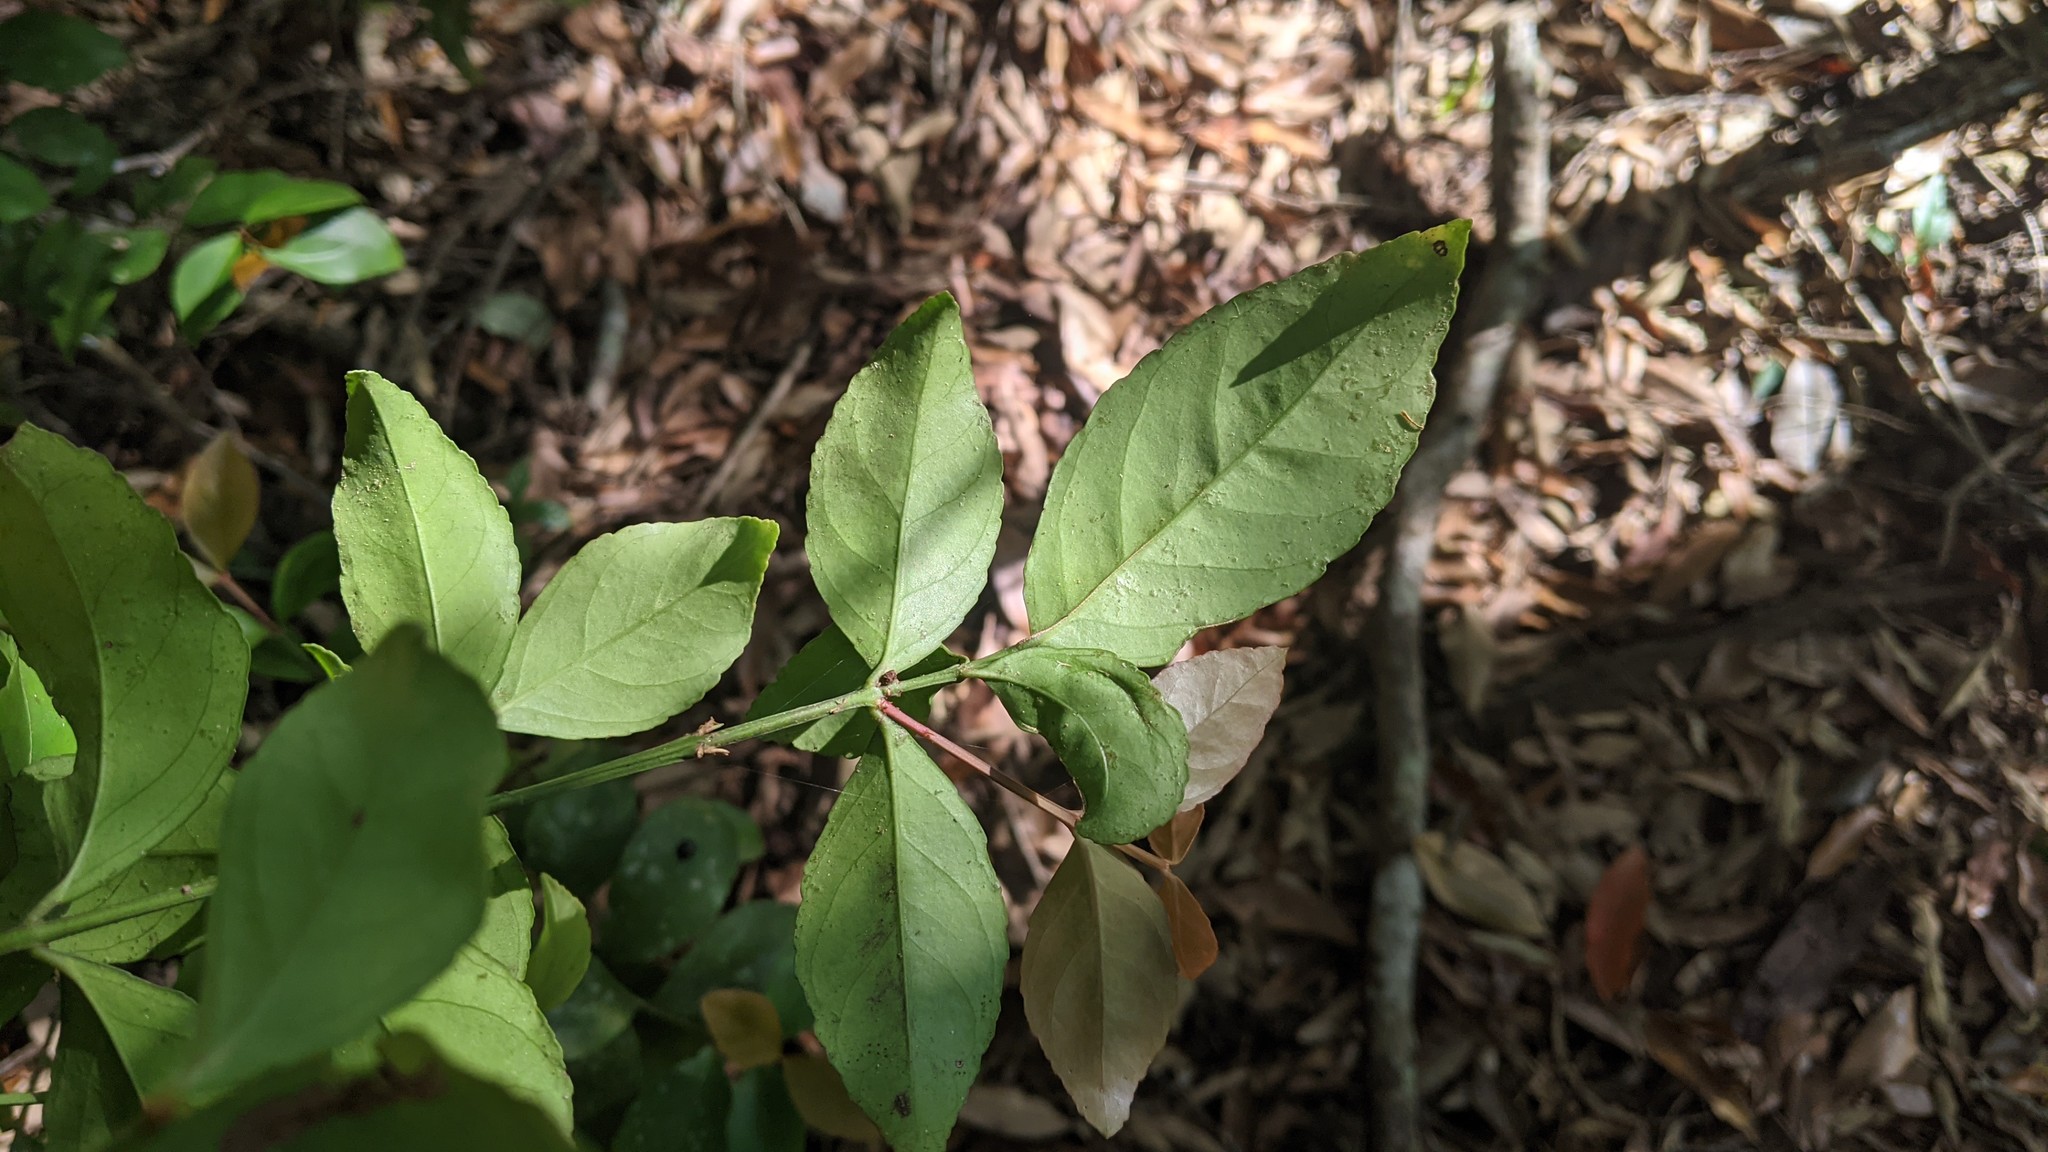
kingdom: Plantae
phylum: Tracheophyta
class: Magnoliopsida
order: Celastrales
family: Celastraceae
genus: Euonymus
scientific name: Euonymus japonicus
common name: Japanese spindletree
